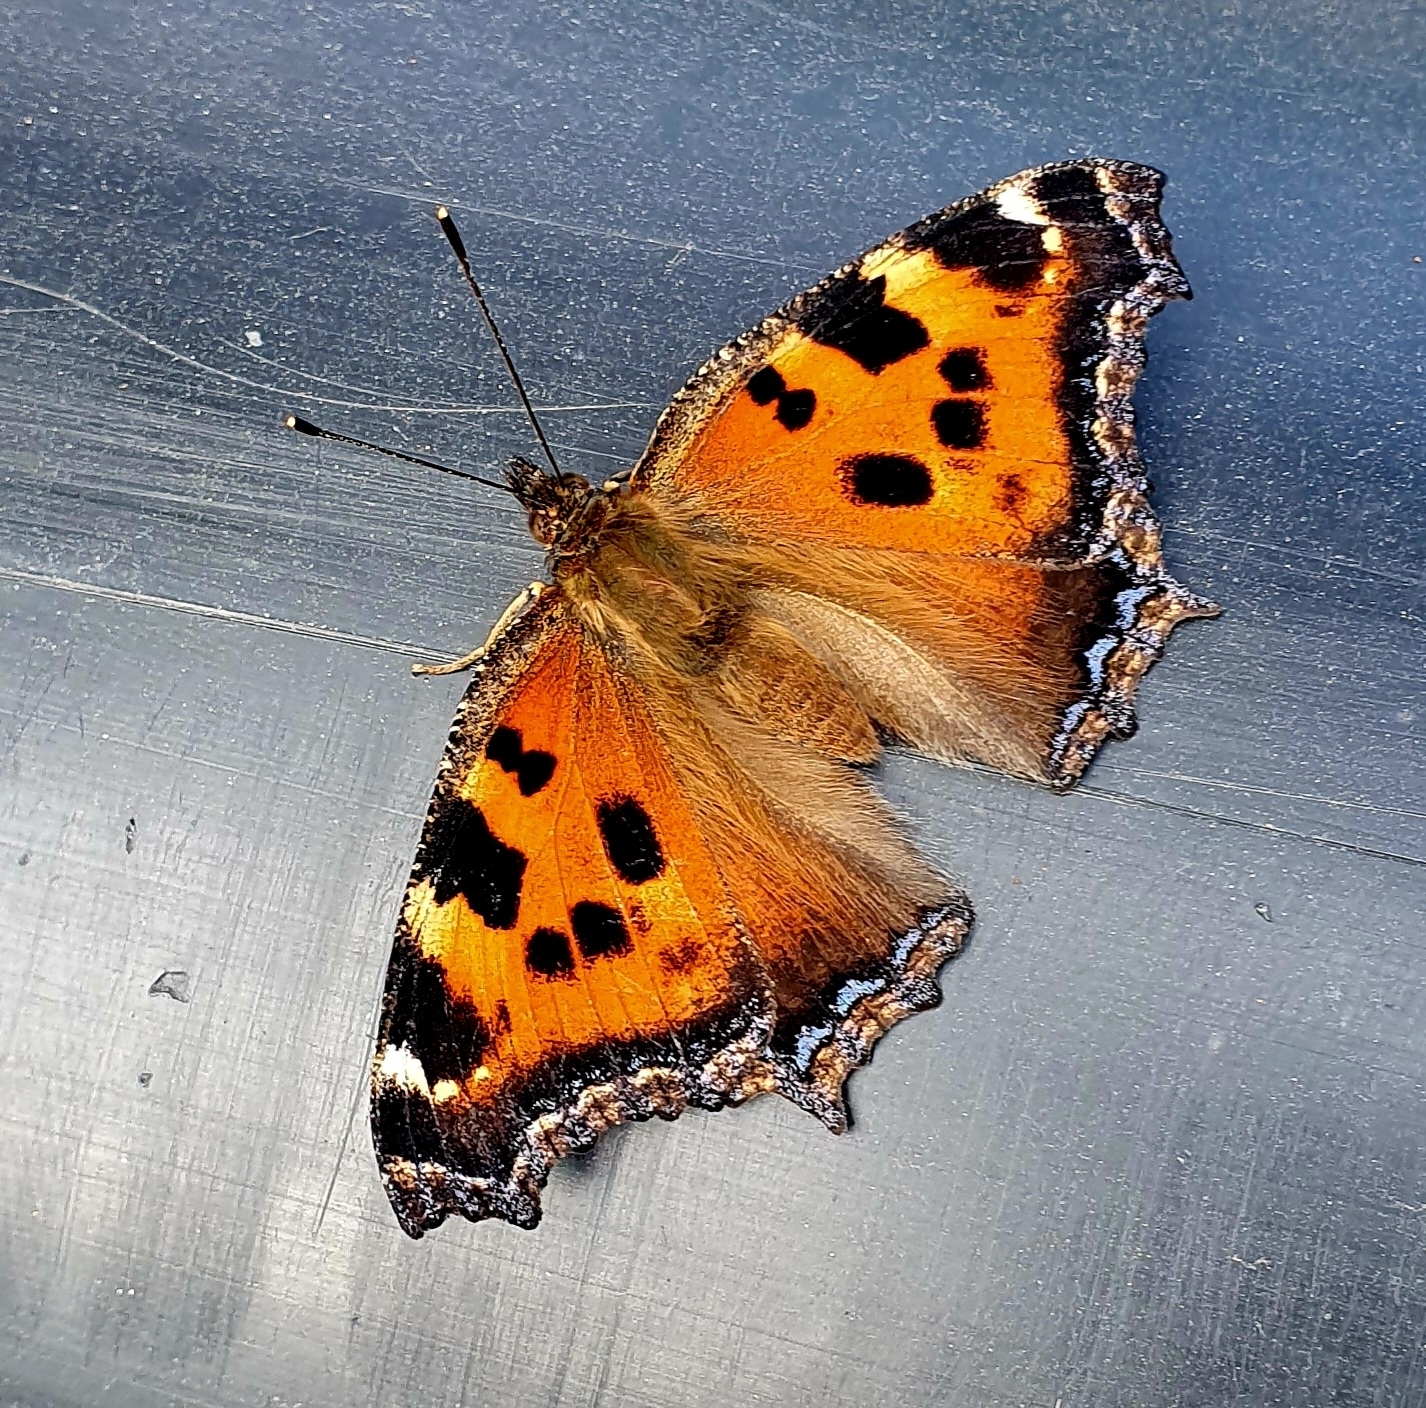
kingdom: Animalia
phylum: Arthropoda
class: Insecta
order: Lepidoptera
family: Nymphalidae
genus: Nymphalis
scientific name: Nymphalis xanthomelas
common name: Scarce tortoiseshell
